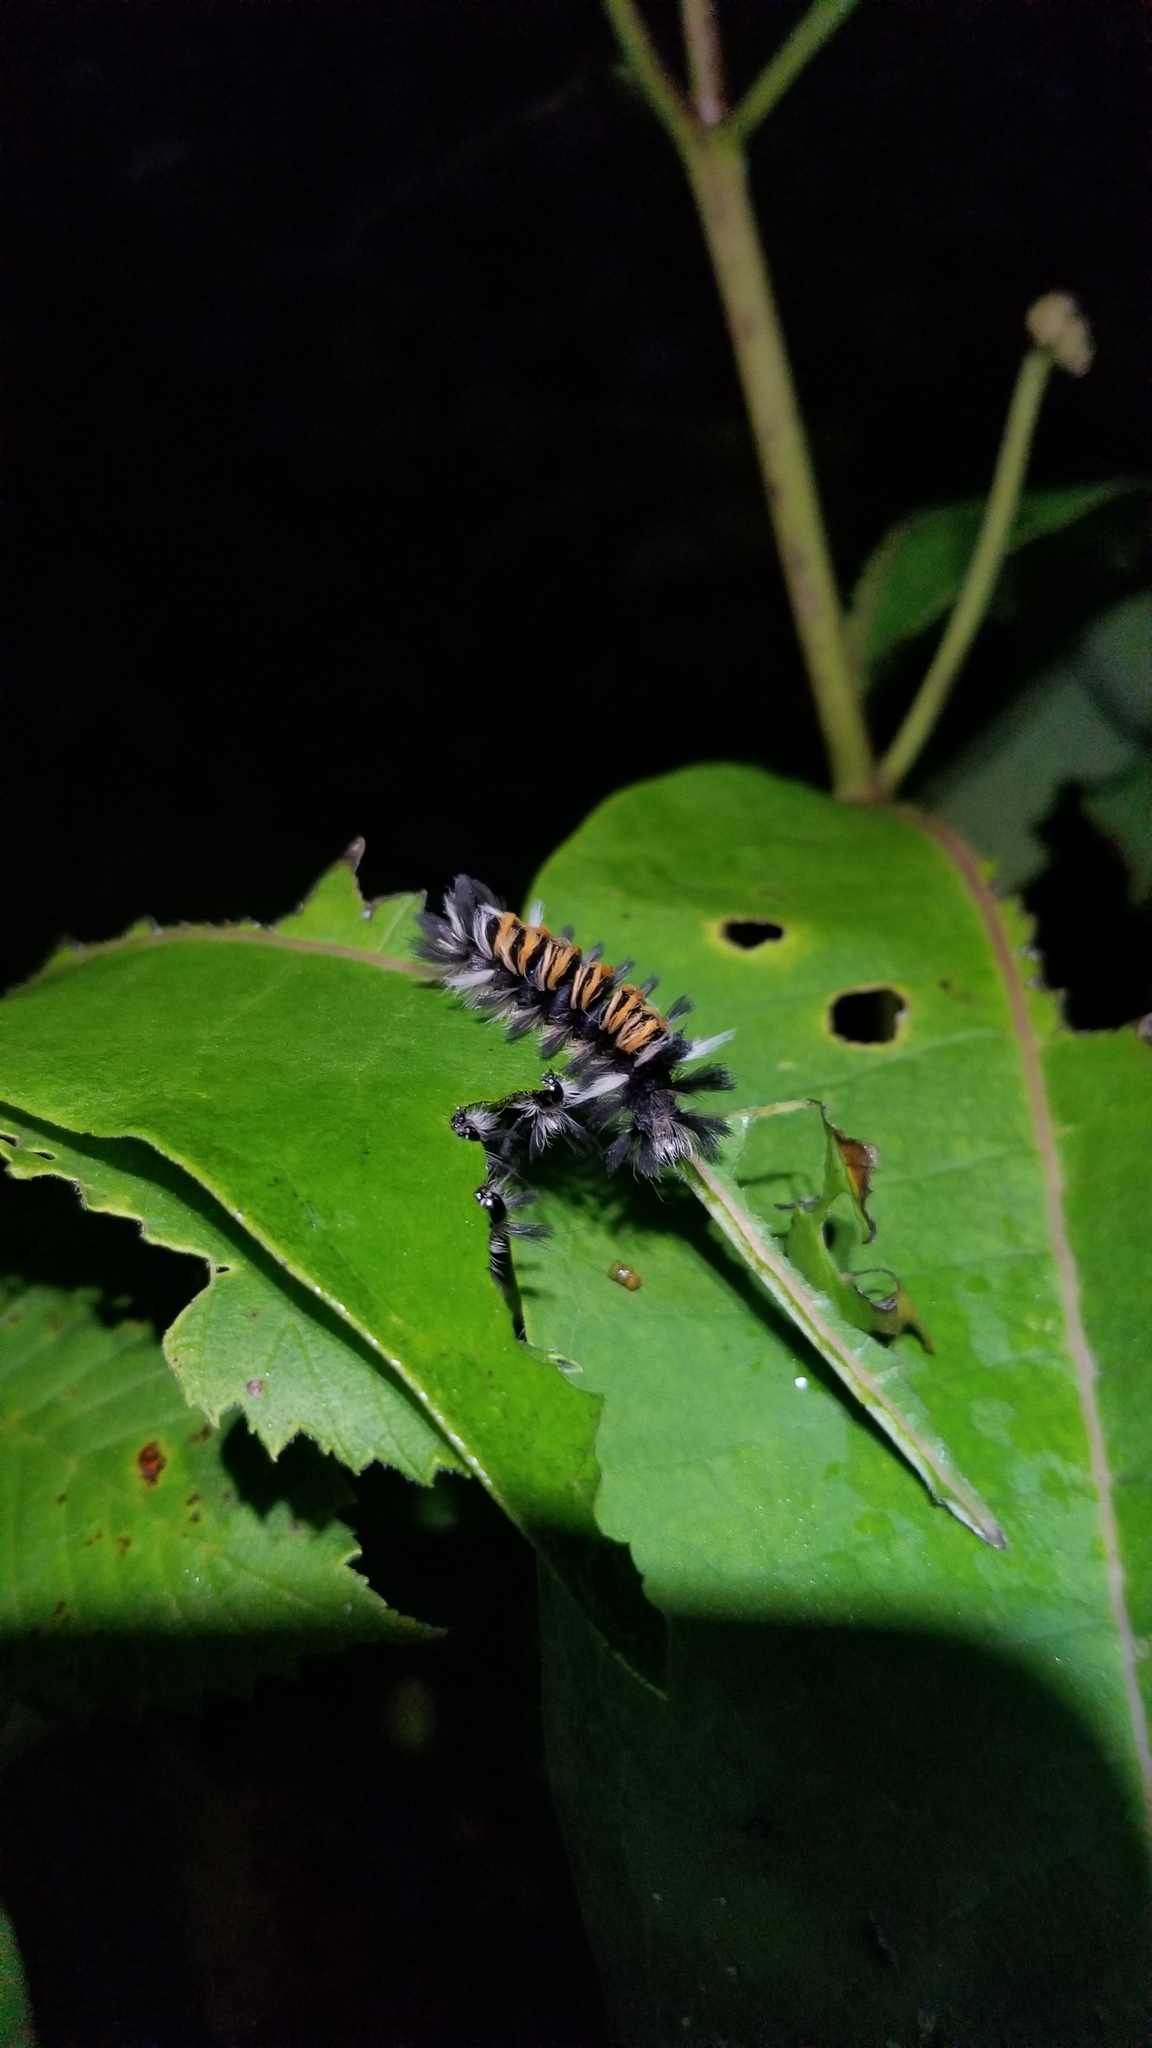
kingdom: Animalia
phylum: Arthropoda
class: Insecta
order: Lepidoptera
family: Erebidae
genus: Euchaetes
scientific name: Euchaetes egle
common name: Milkweed tussock moth
